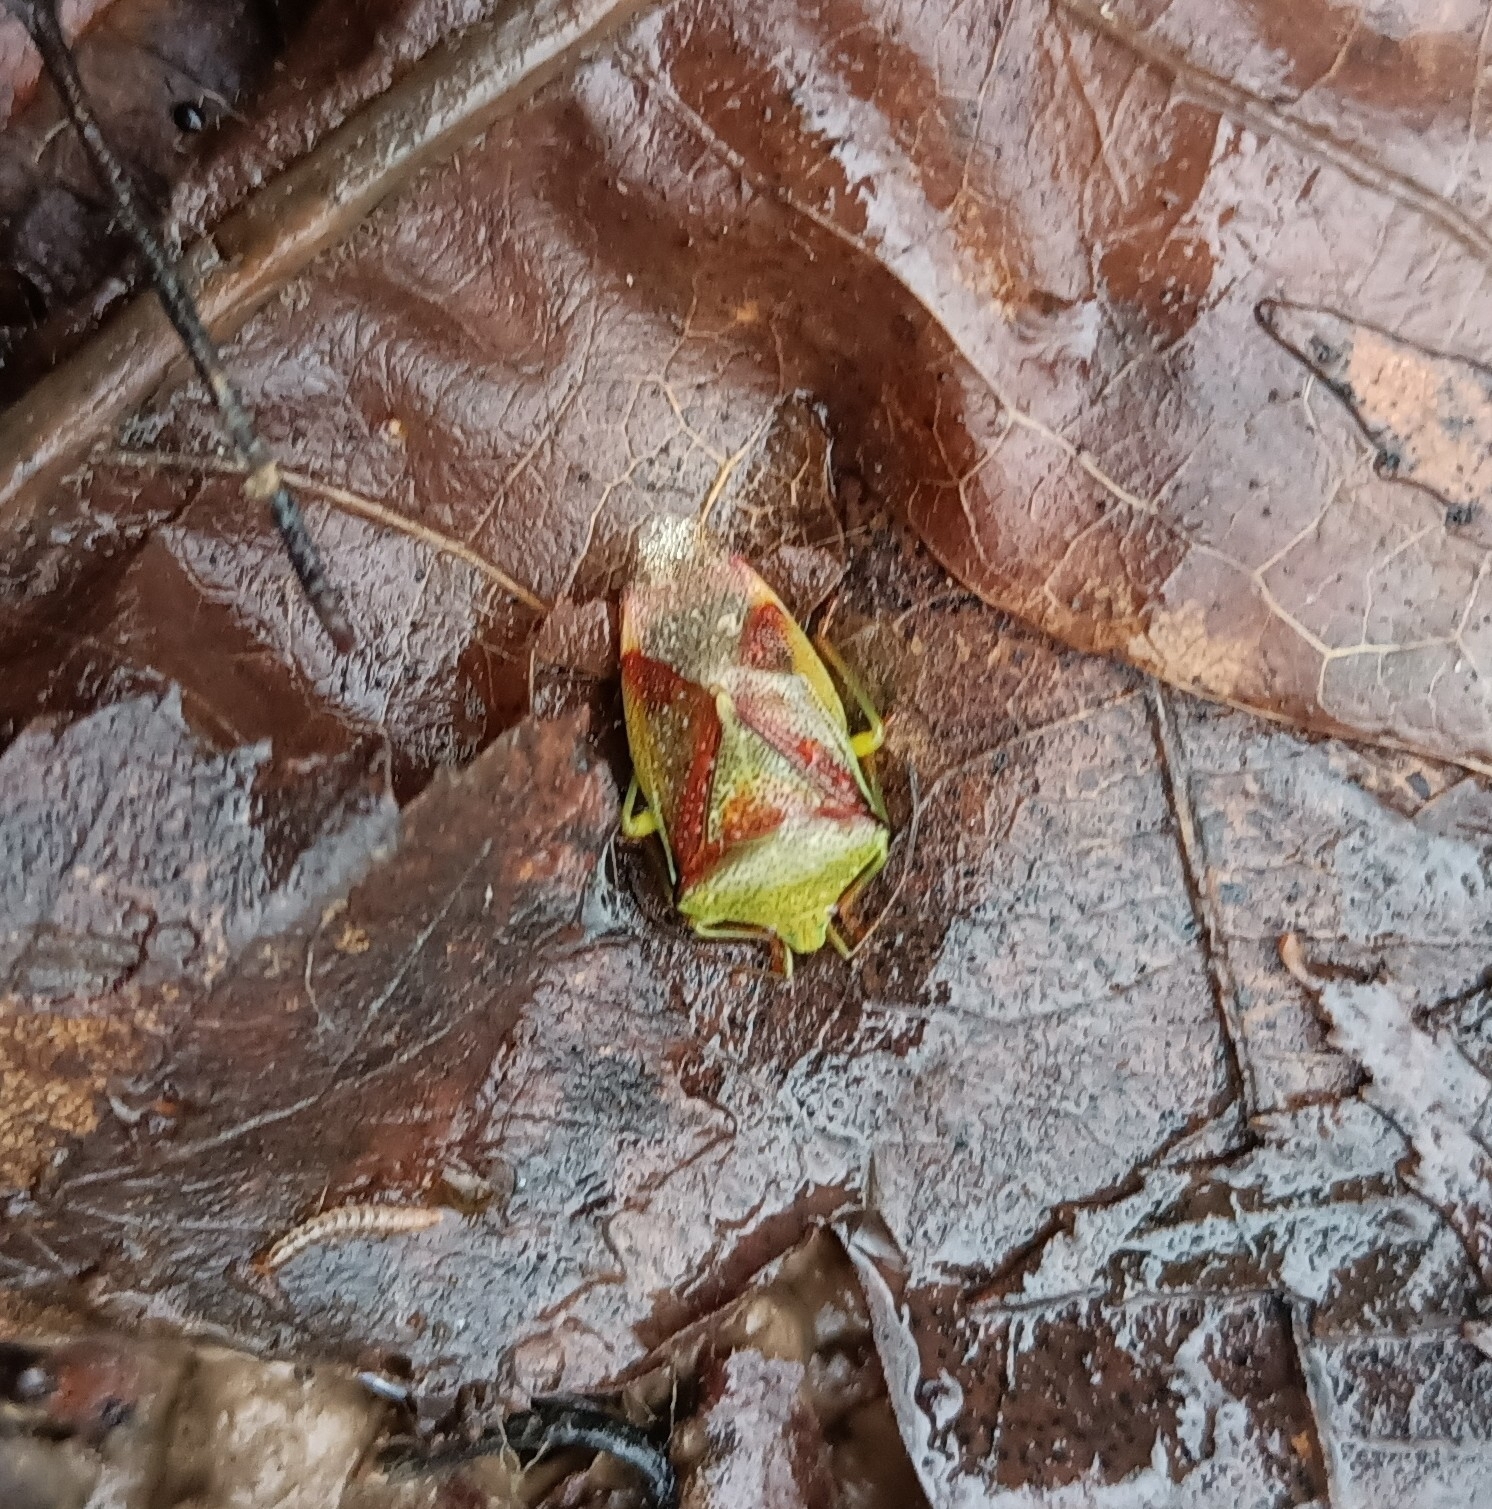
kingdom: Animalia
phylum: Arthropoda
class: Insecta
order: Hemiptera
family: Acanthosomatidae
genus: Elasmostethus
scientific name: Elasmostethus
